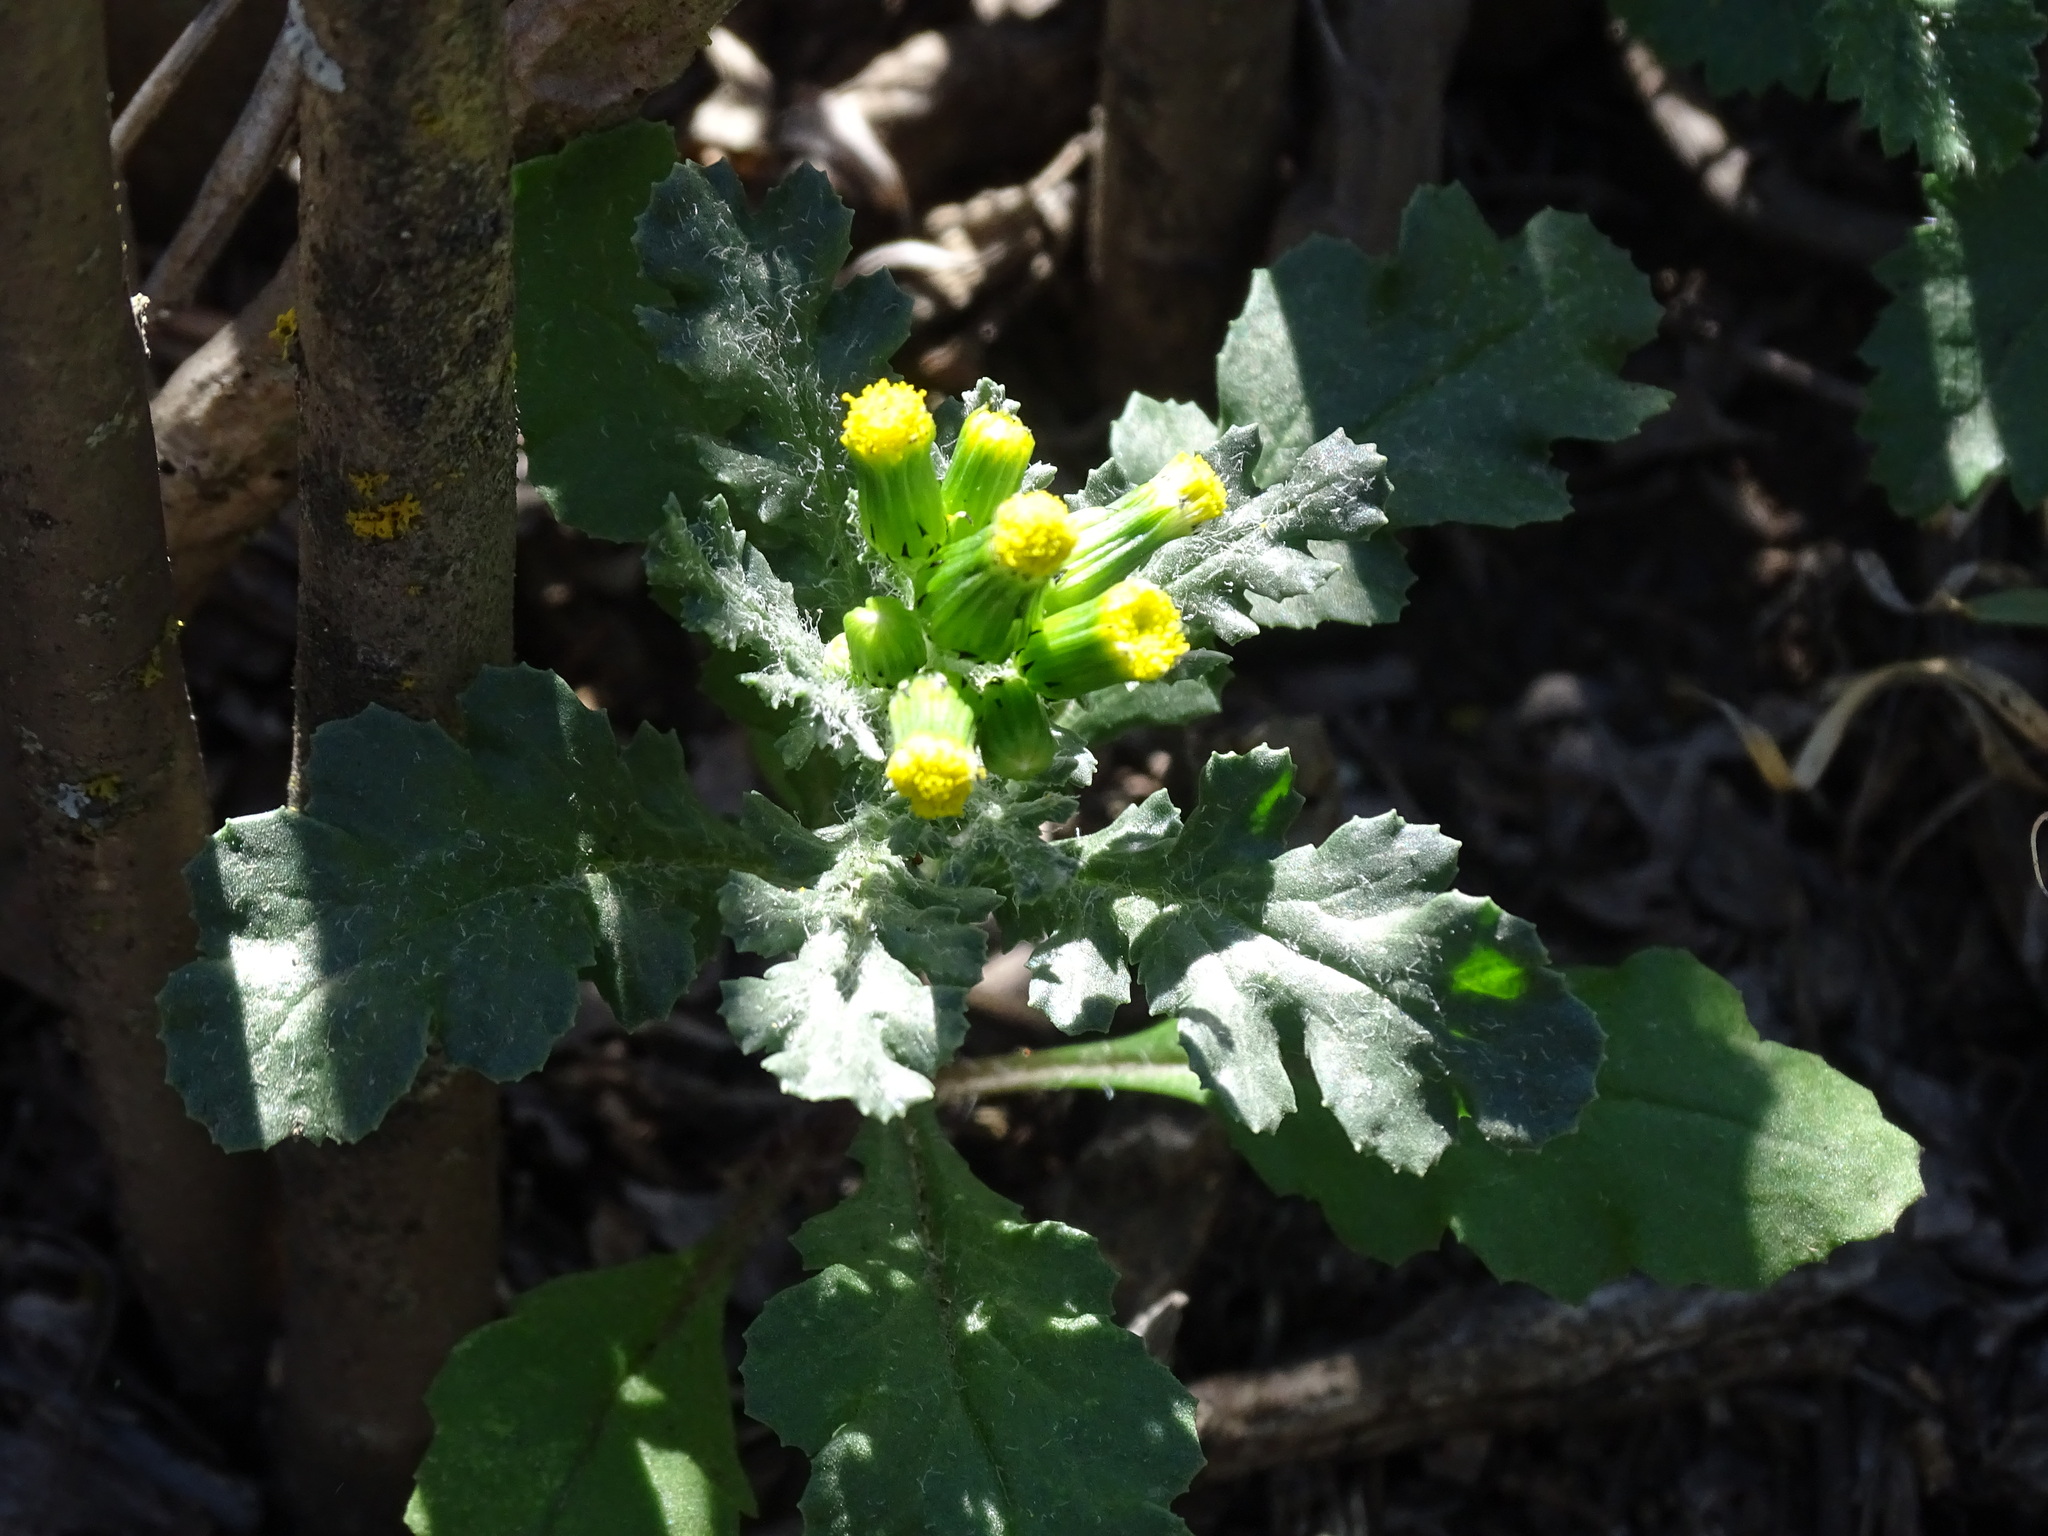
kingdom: Plantae
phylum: Tracheophyta
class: Magnoliopsida
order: Asterales
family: Asteraceae
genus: Senecio
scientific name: Senecio vulgaris
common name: Old-man-in-the-spring
